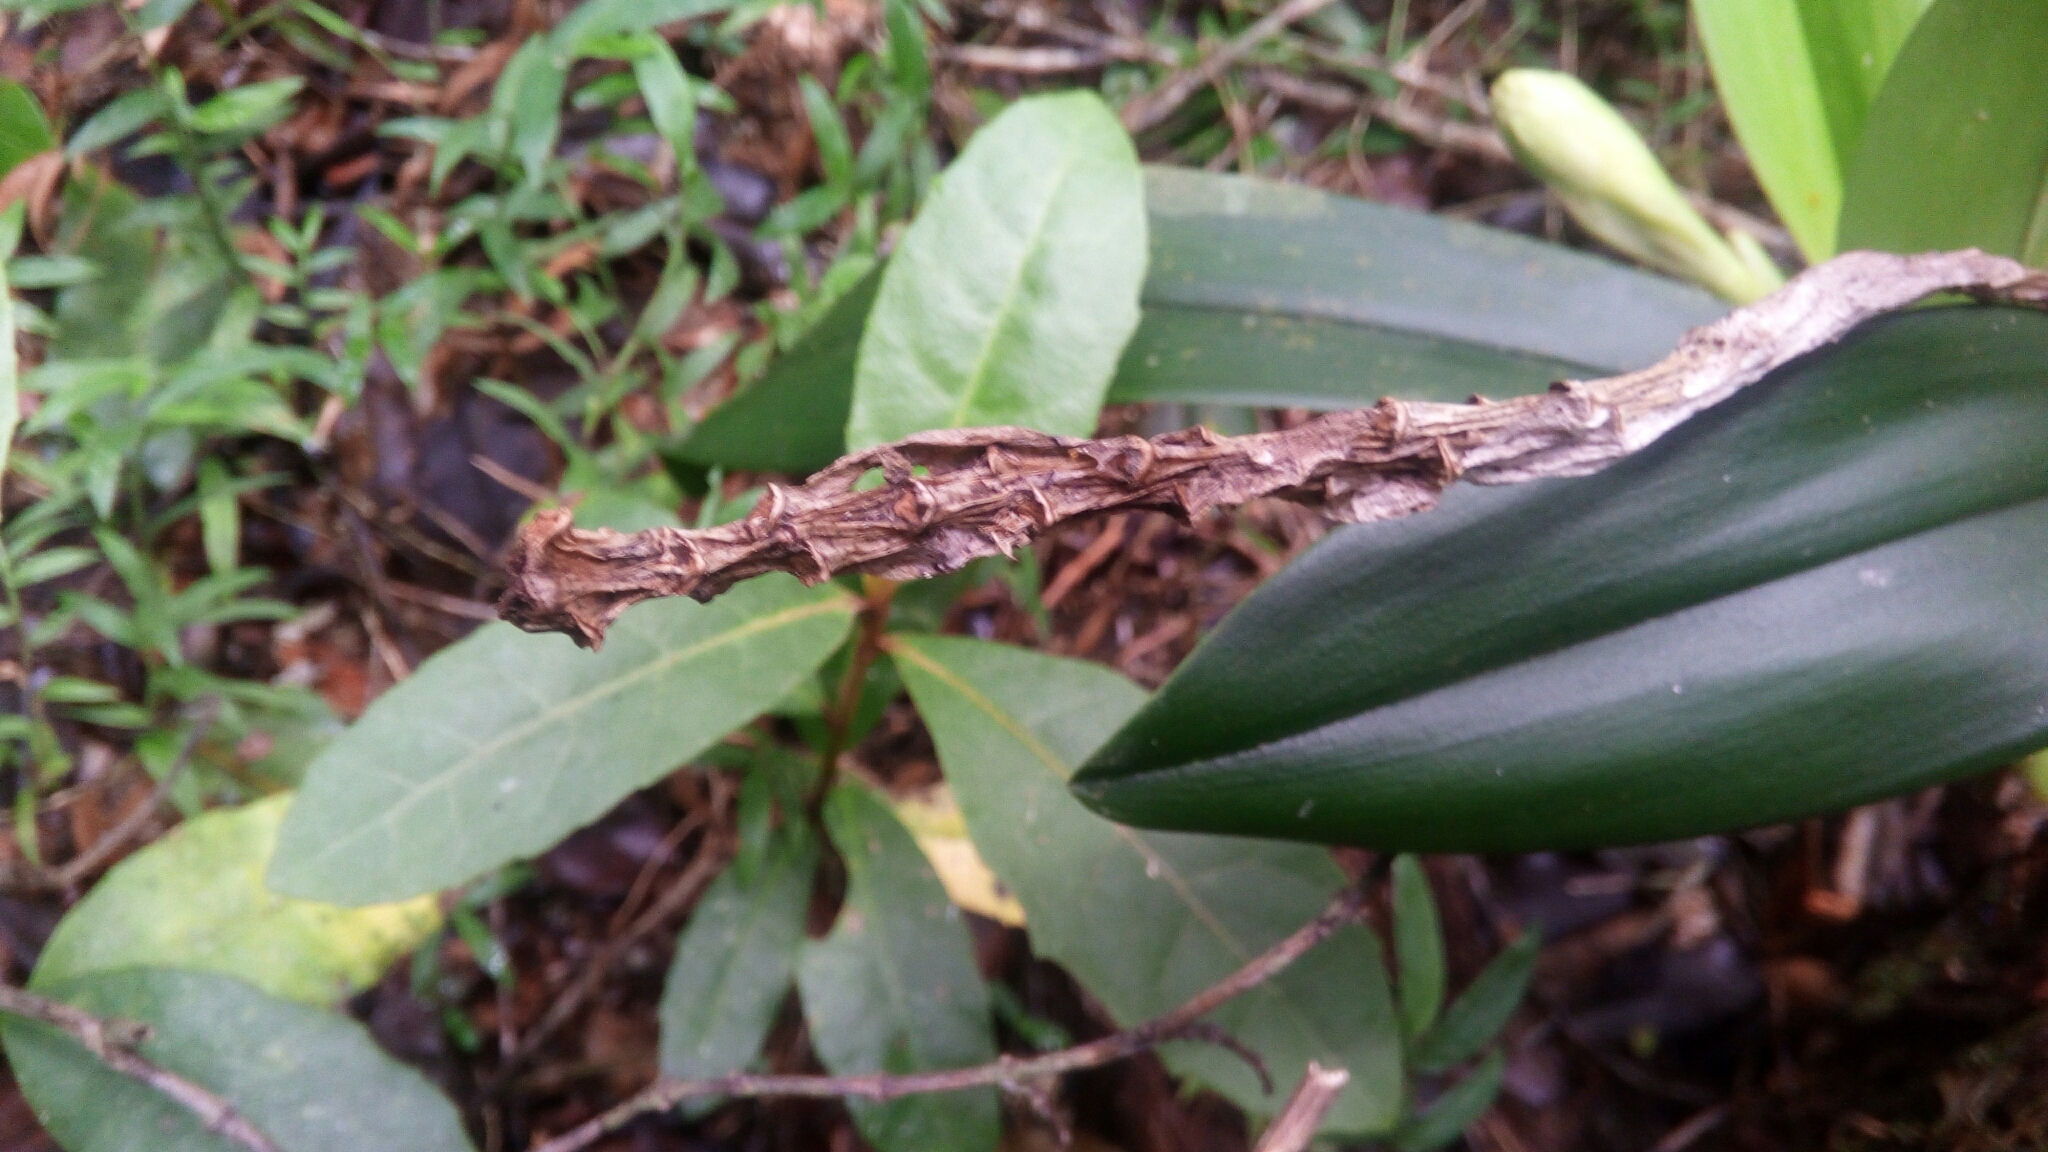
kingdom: Plantae
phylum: Tracheophyta
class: Liliopsida
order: Asparagales
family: Orchidaceae
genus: Bulbophyllum
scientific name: Bulbophyllum occlusum
